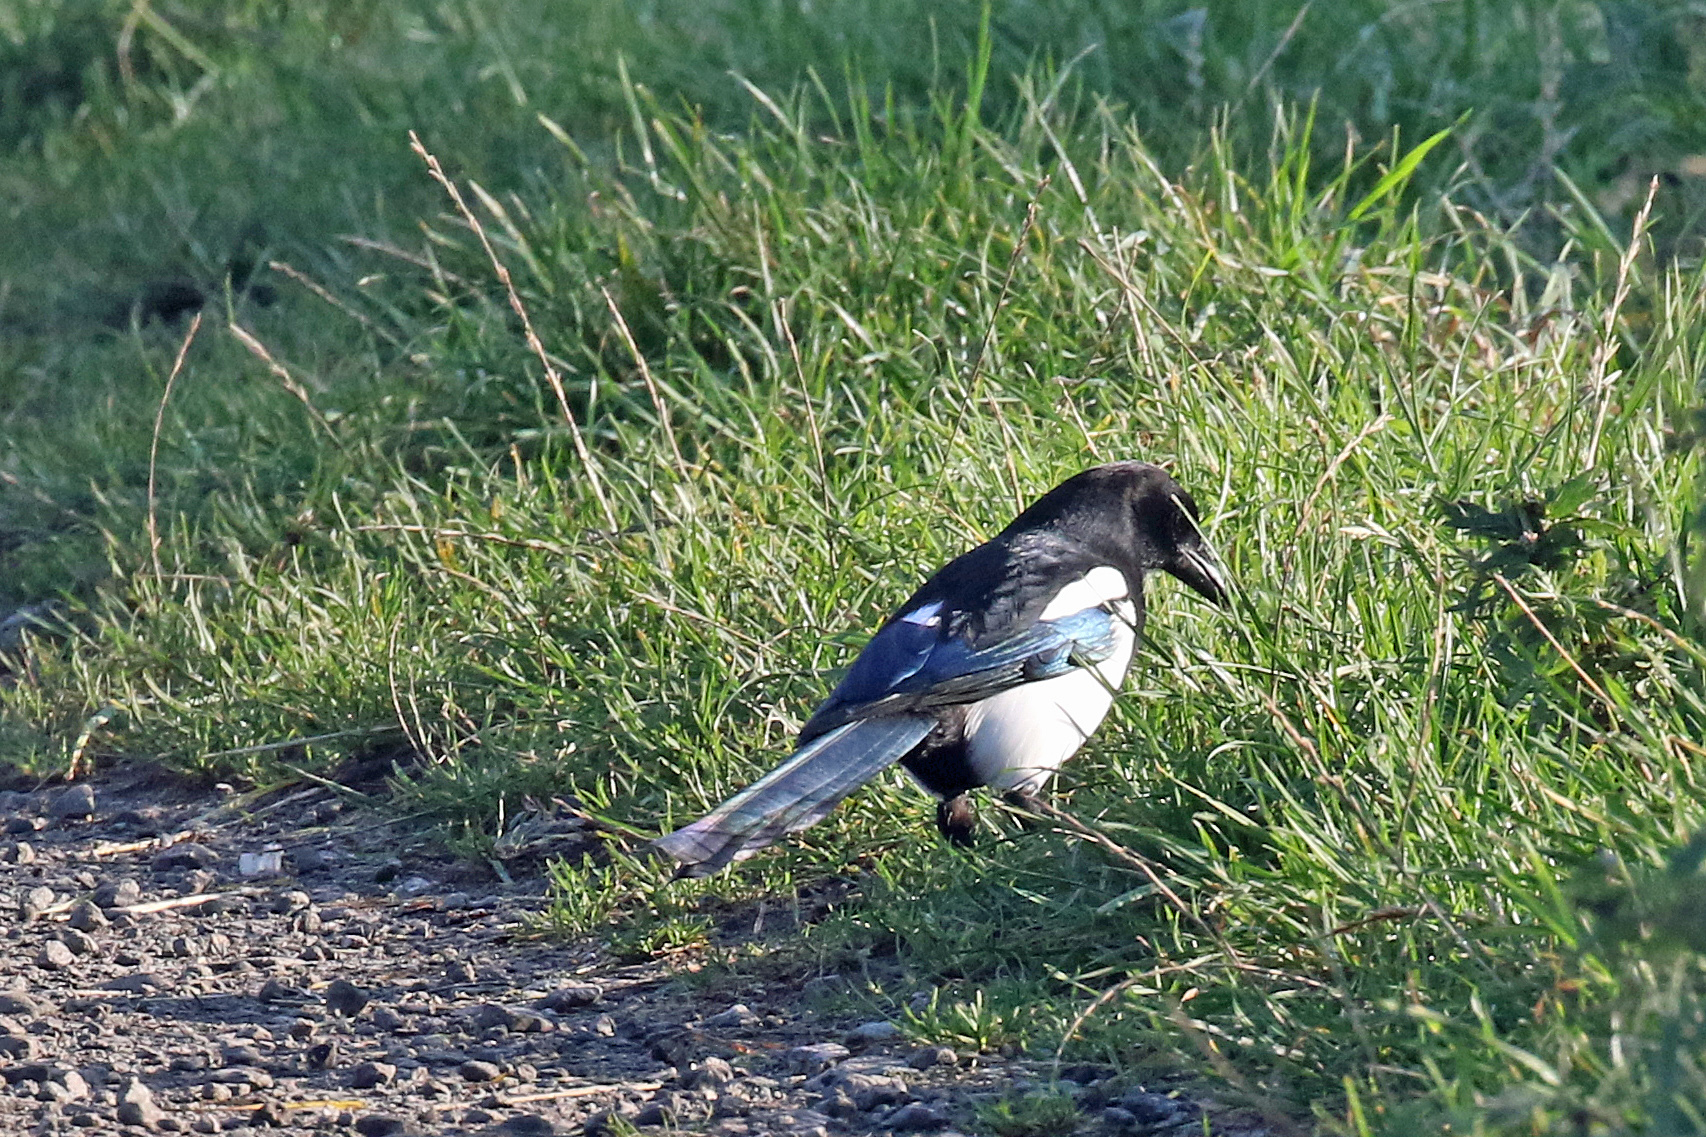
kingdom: Animalia
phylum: Chordata
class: Aves
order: Passeriformes
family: Corvidae
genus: Pica
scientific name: Pica pica
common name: Eurasian magpie
